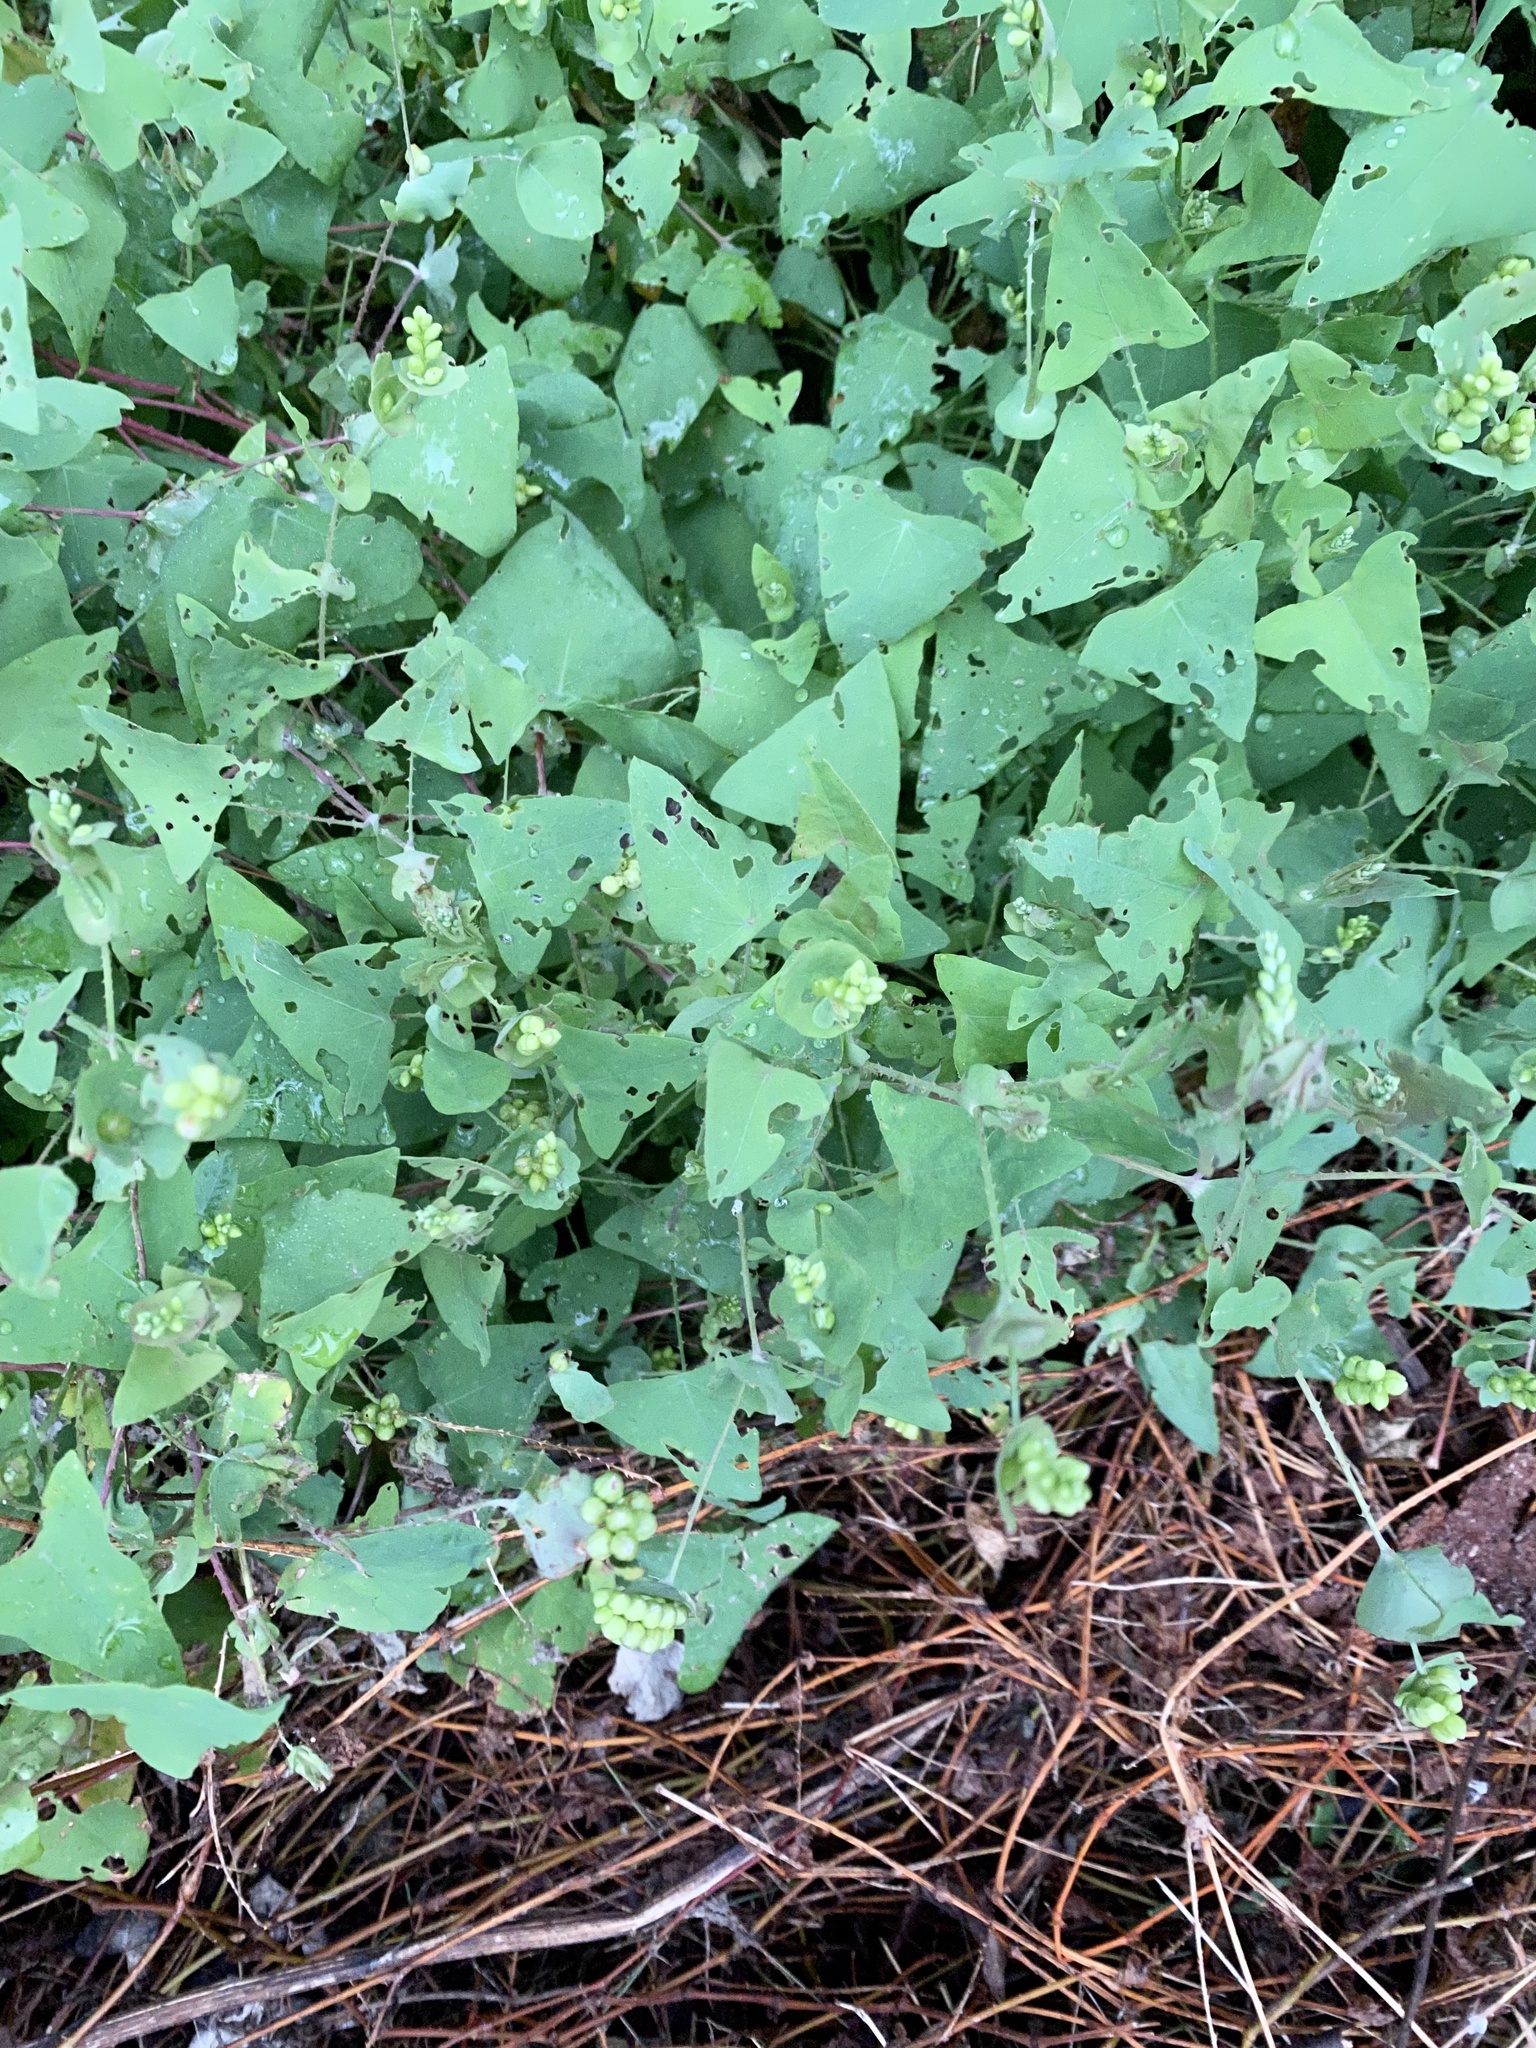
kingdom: Plantae
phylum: Tracheophyta
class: Magnoliopsida
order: Caryophyllales
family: Polygonaceae
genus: Persicaria
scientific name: Persicaria perfoliata
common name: Asiatic tearthumb
